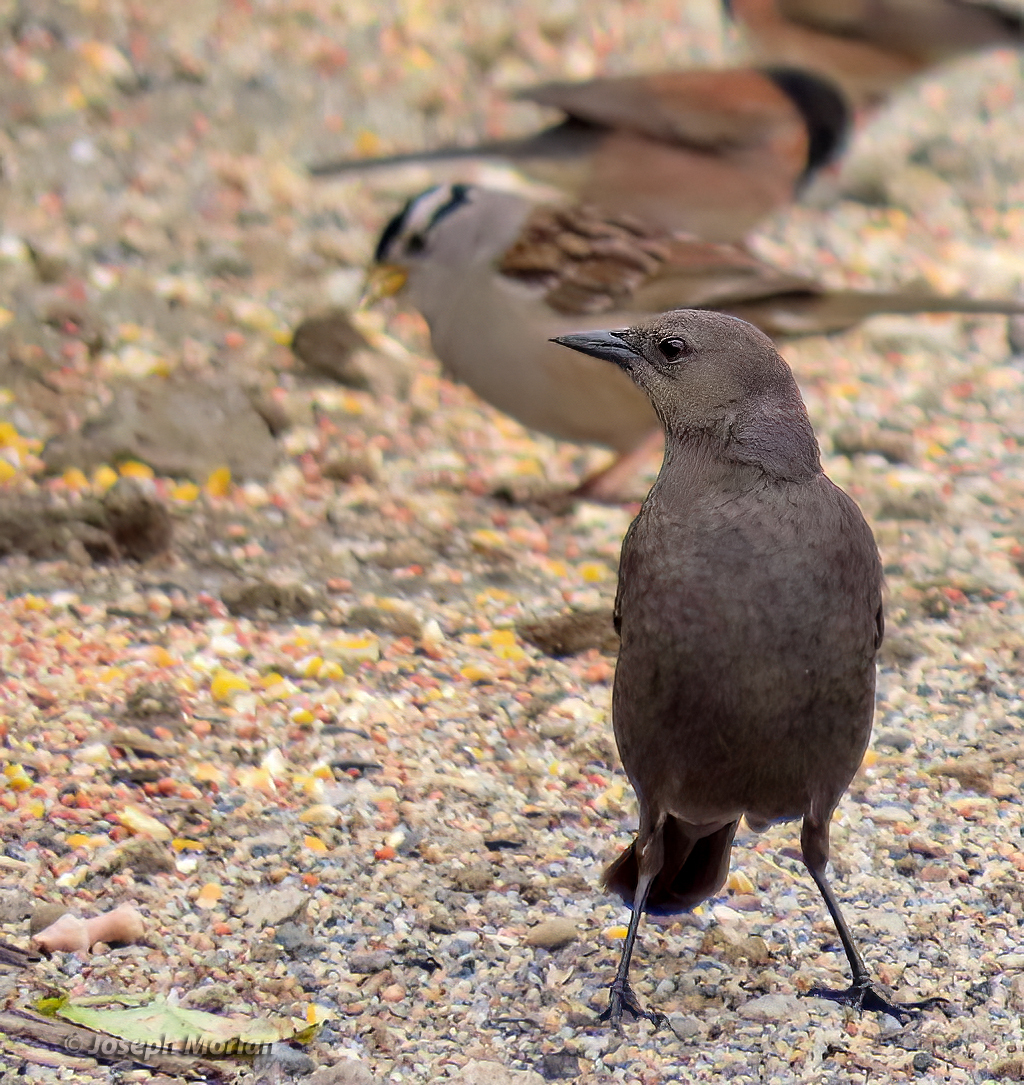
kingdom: Animalia
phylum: Chordata
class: Aves
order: Passeriformes
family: Icteridae
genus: Euphagus
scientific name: Euphagus cyanocephalus
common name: Brewer's blackbird
